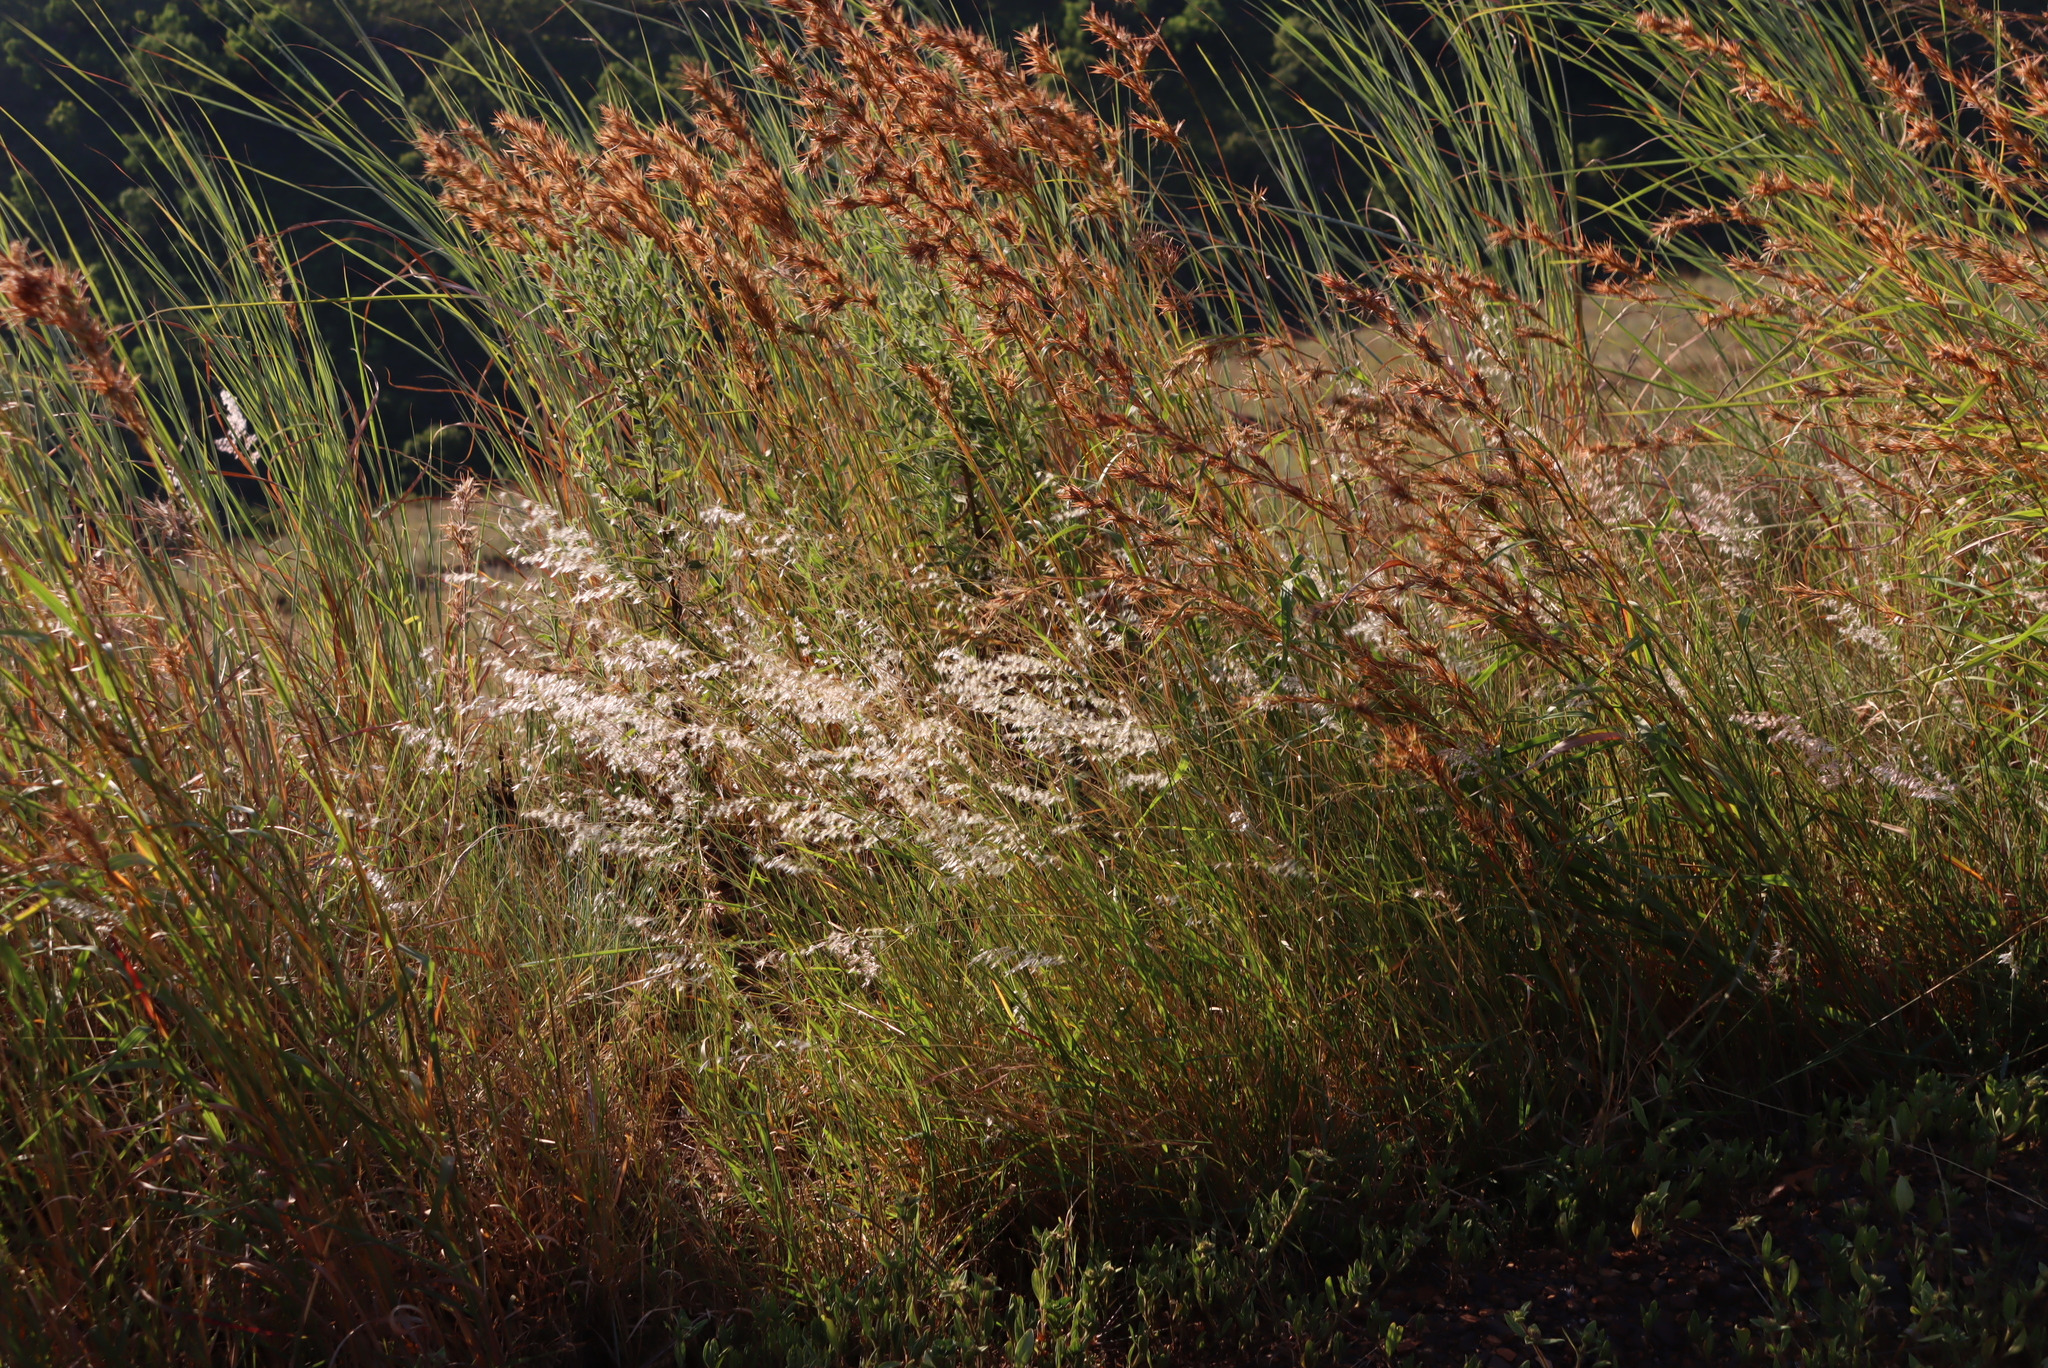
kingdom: Plantae
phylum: Tracheophyta
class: Liliopsida
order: Poales
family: Poaceae
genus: Melinis
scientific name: Melinis repens
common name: Rose natal grass
